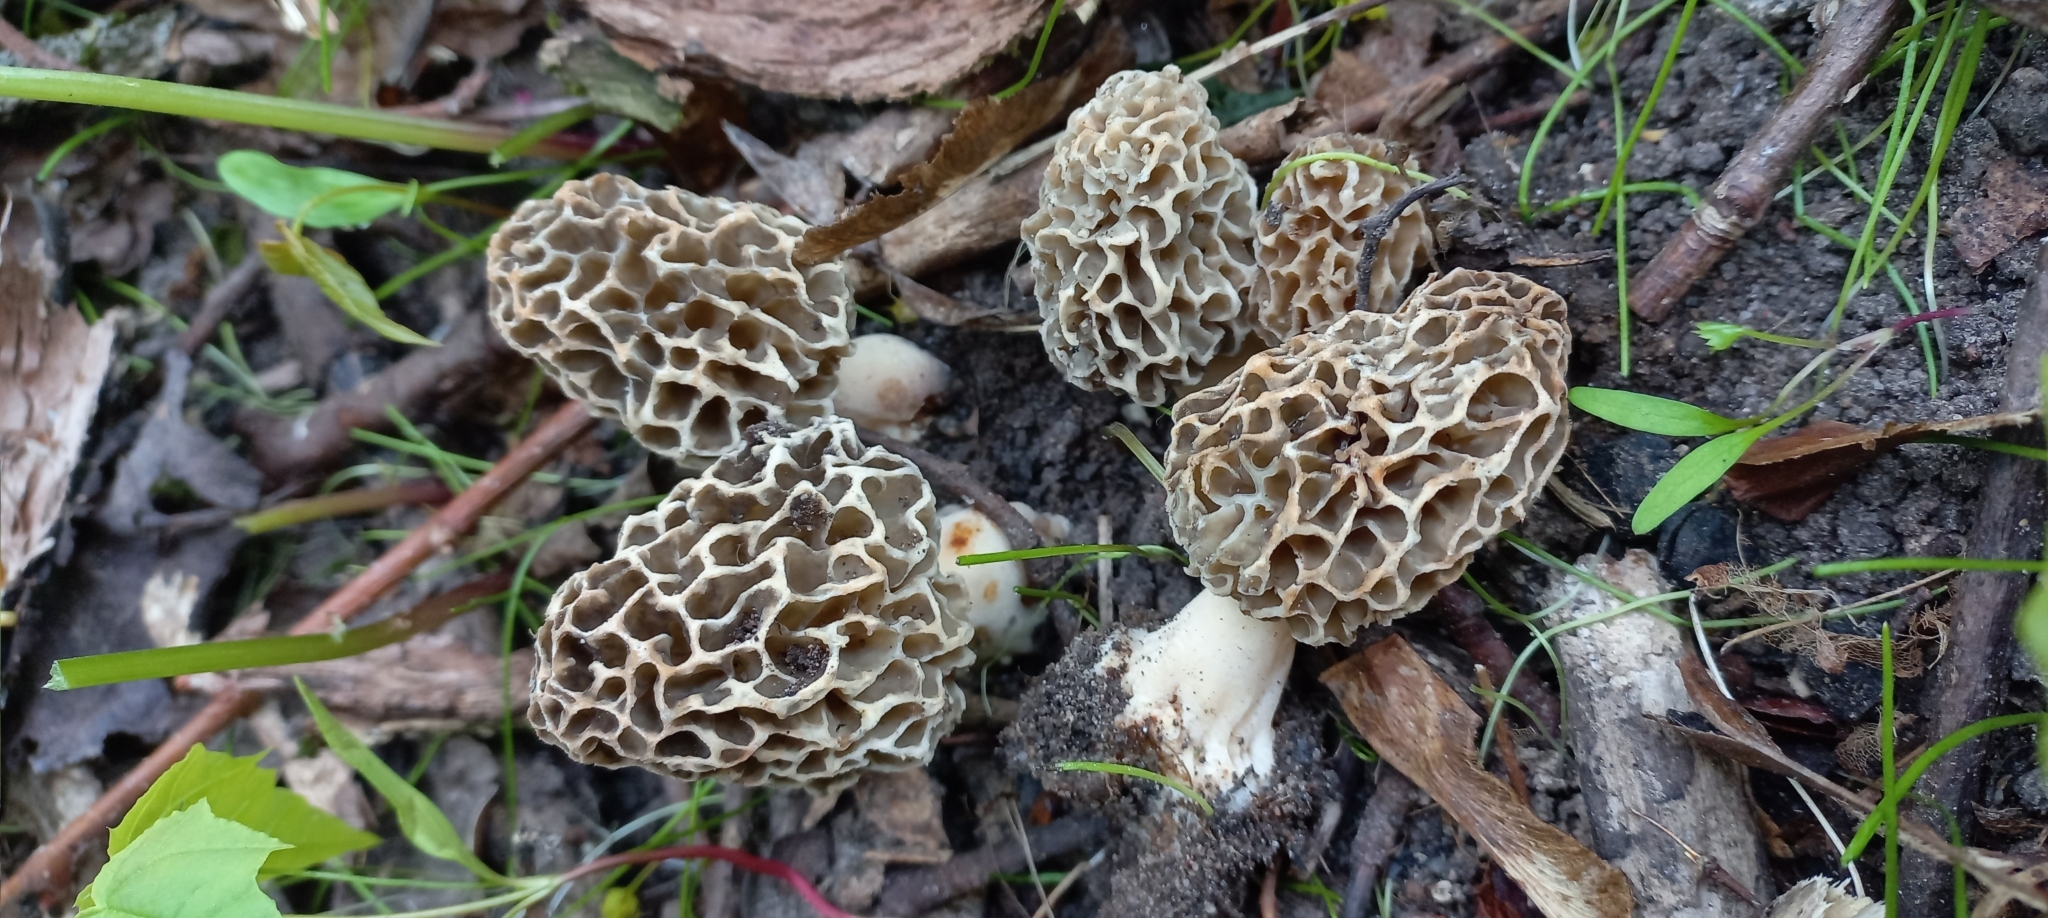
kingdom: Fungi
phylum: Ascomycota
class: Pezizomycetes
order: Pezizales
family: Morchellaceae
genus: Morchella
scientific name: Morchella
